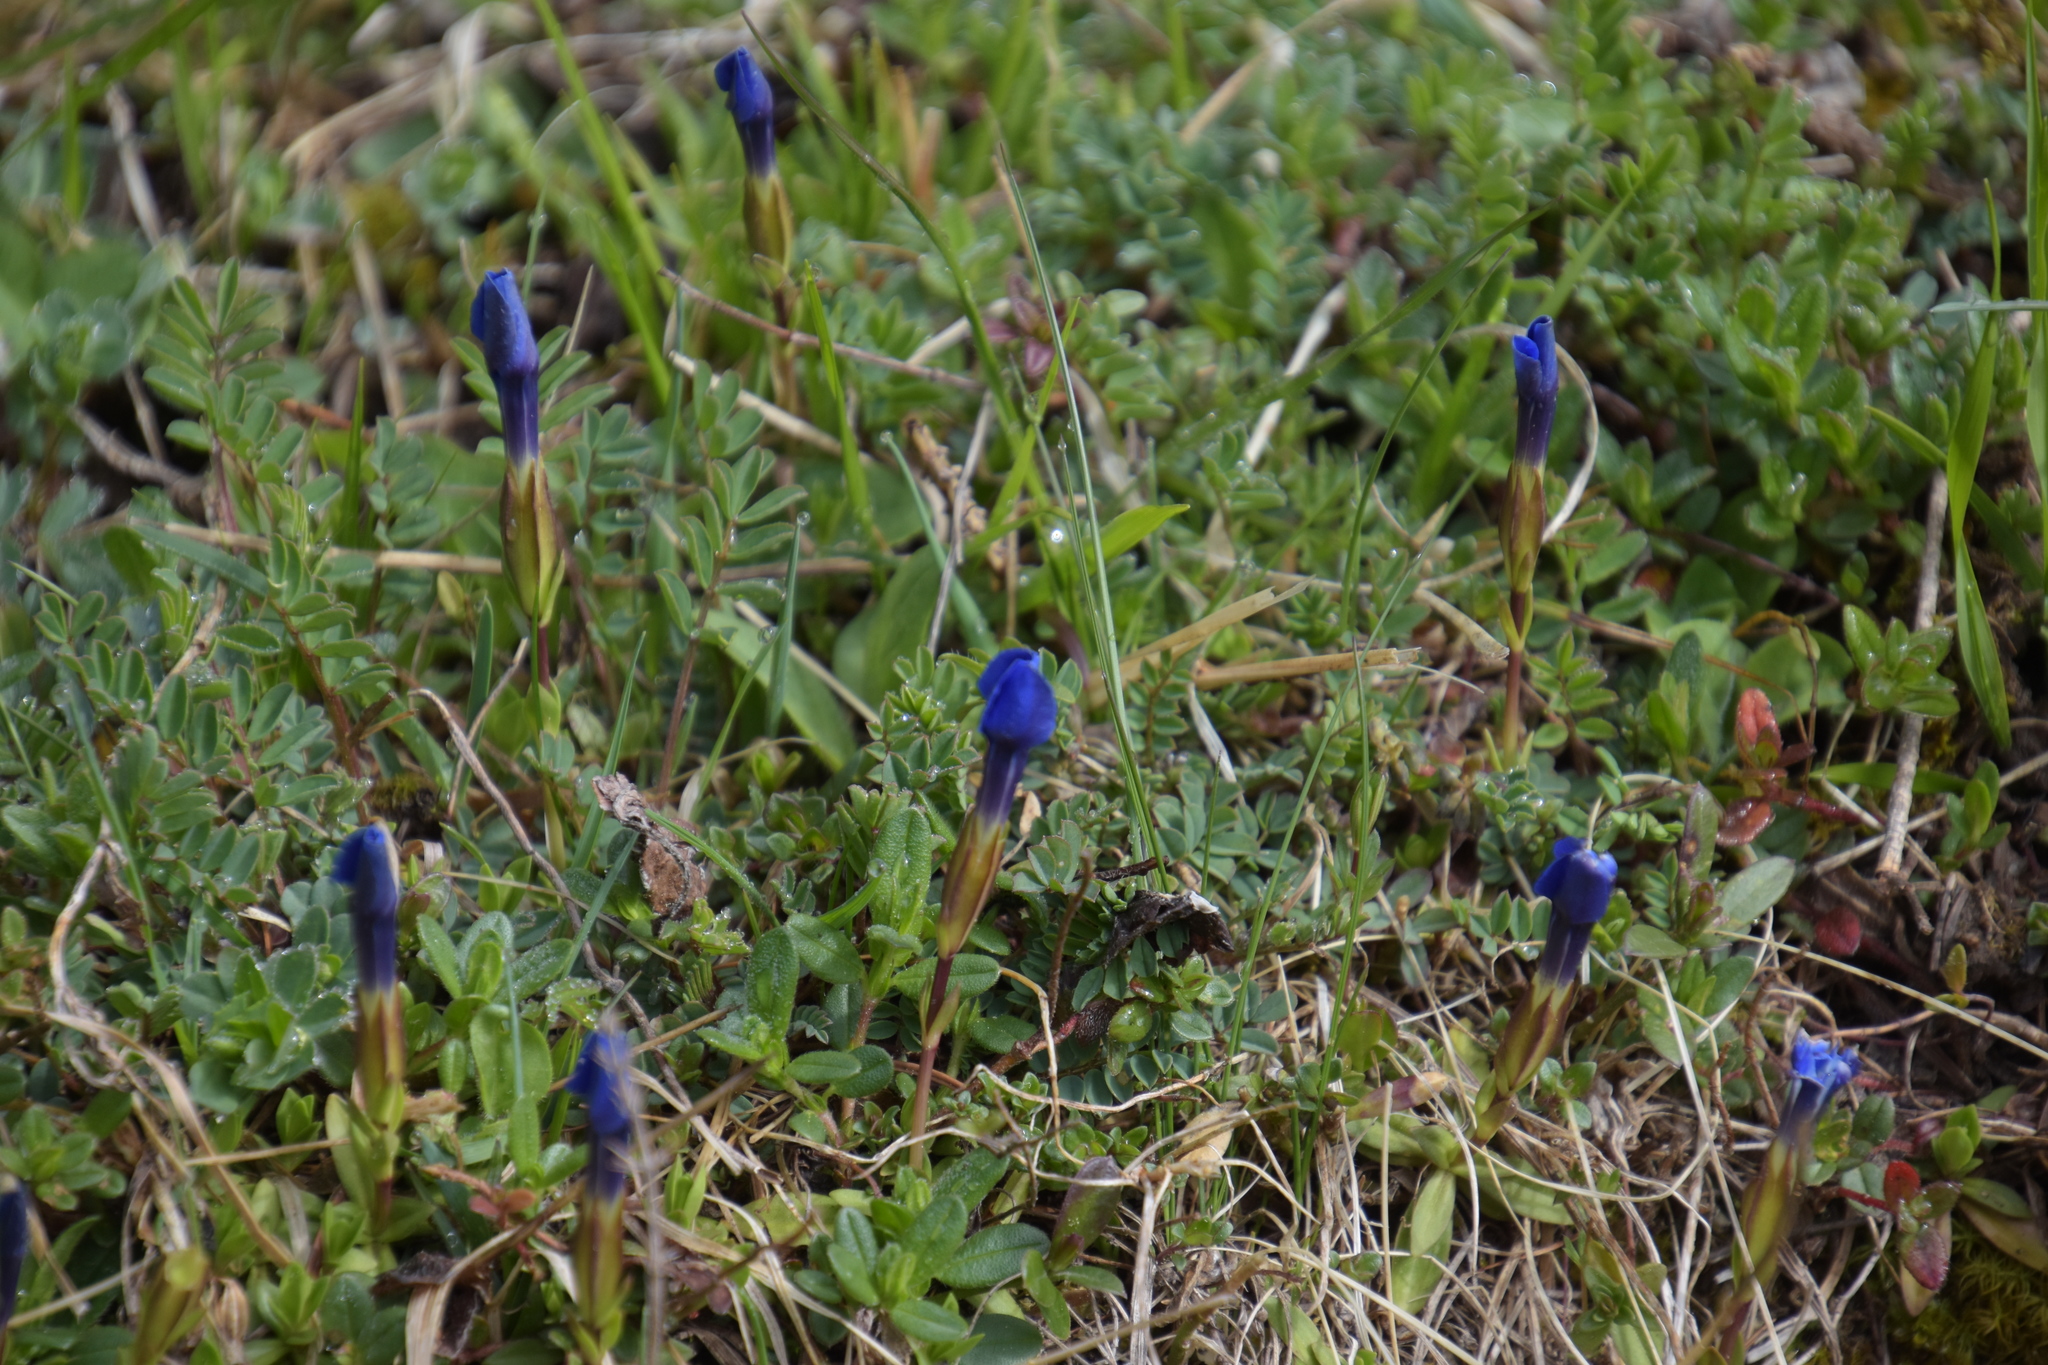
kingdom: Plantae
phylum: Tracheophyta
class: Magnoliopsida
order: Gentianales
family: Gentianaceae
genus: Gentiana
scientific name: Gentiana verna
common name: Spring gentian
